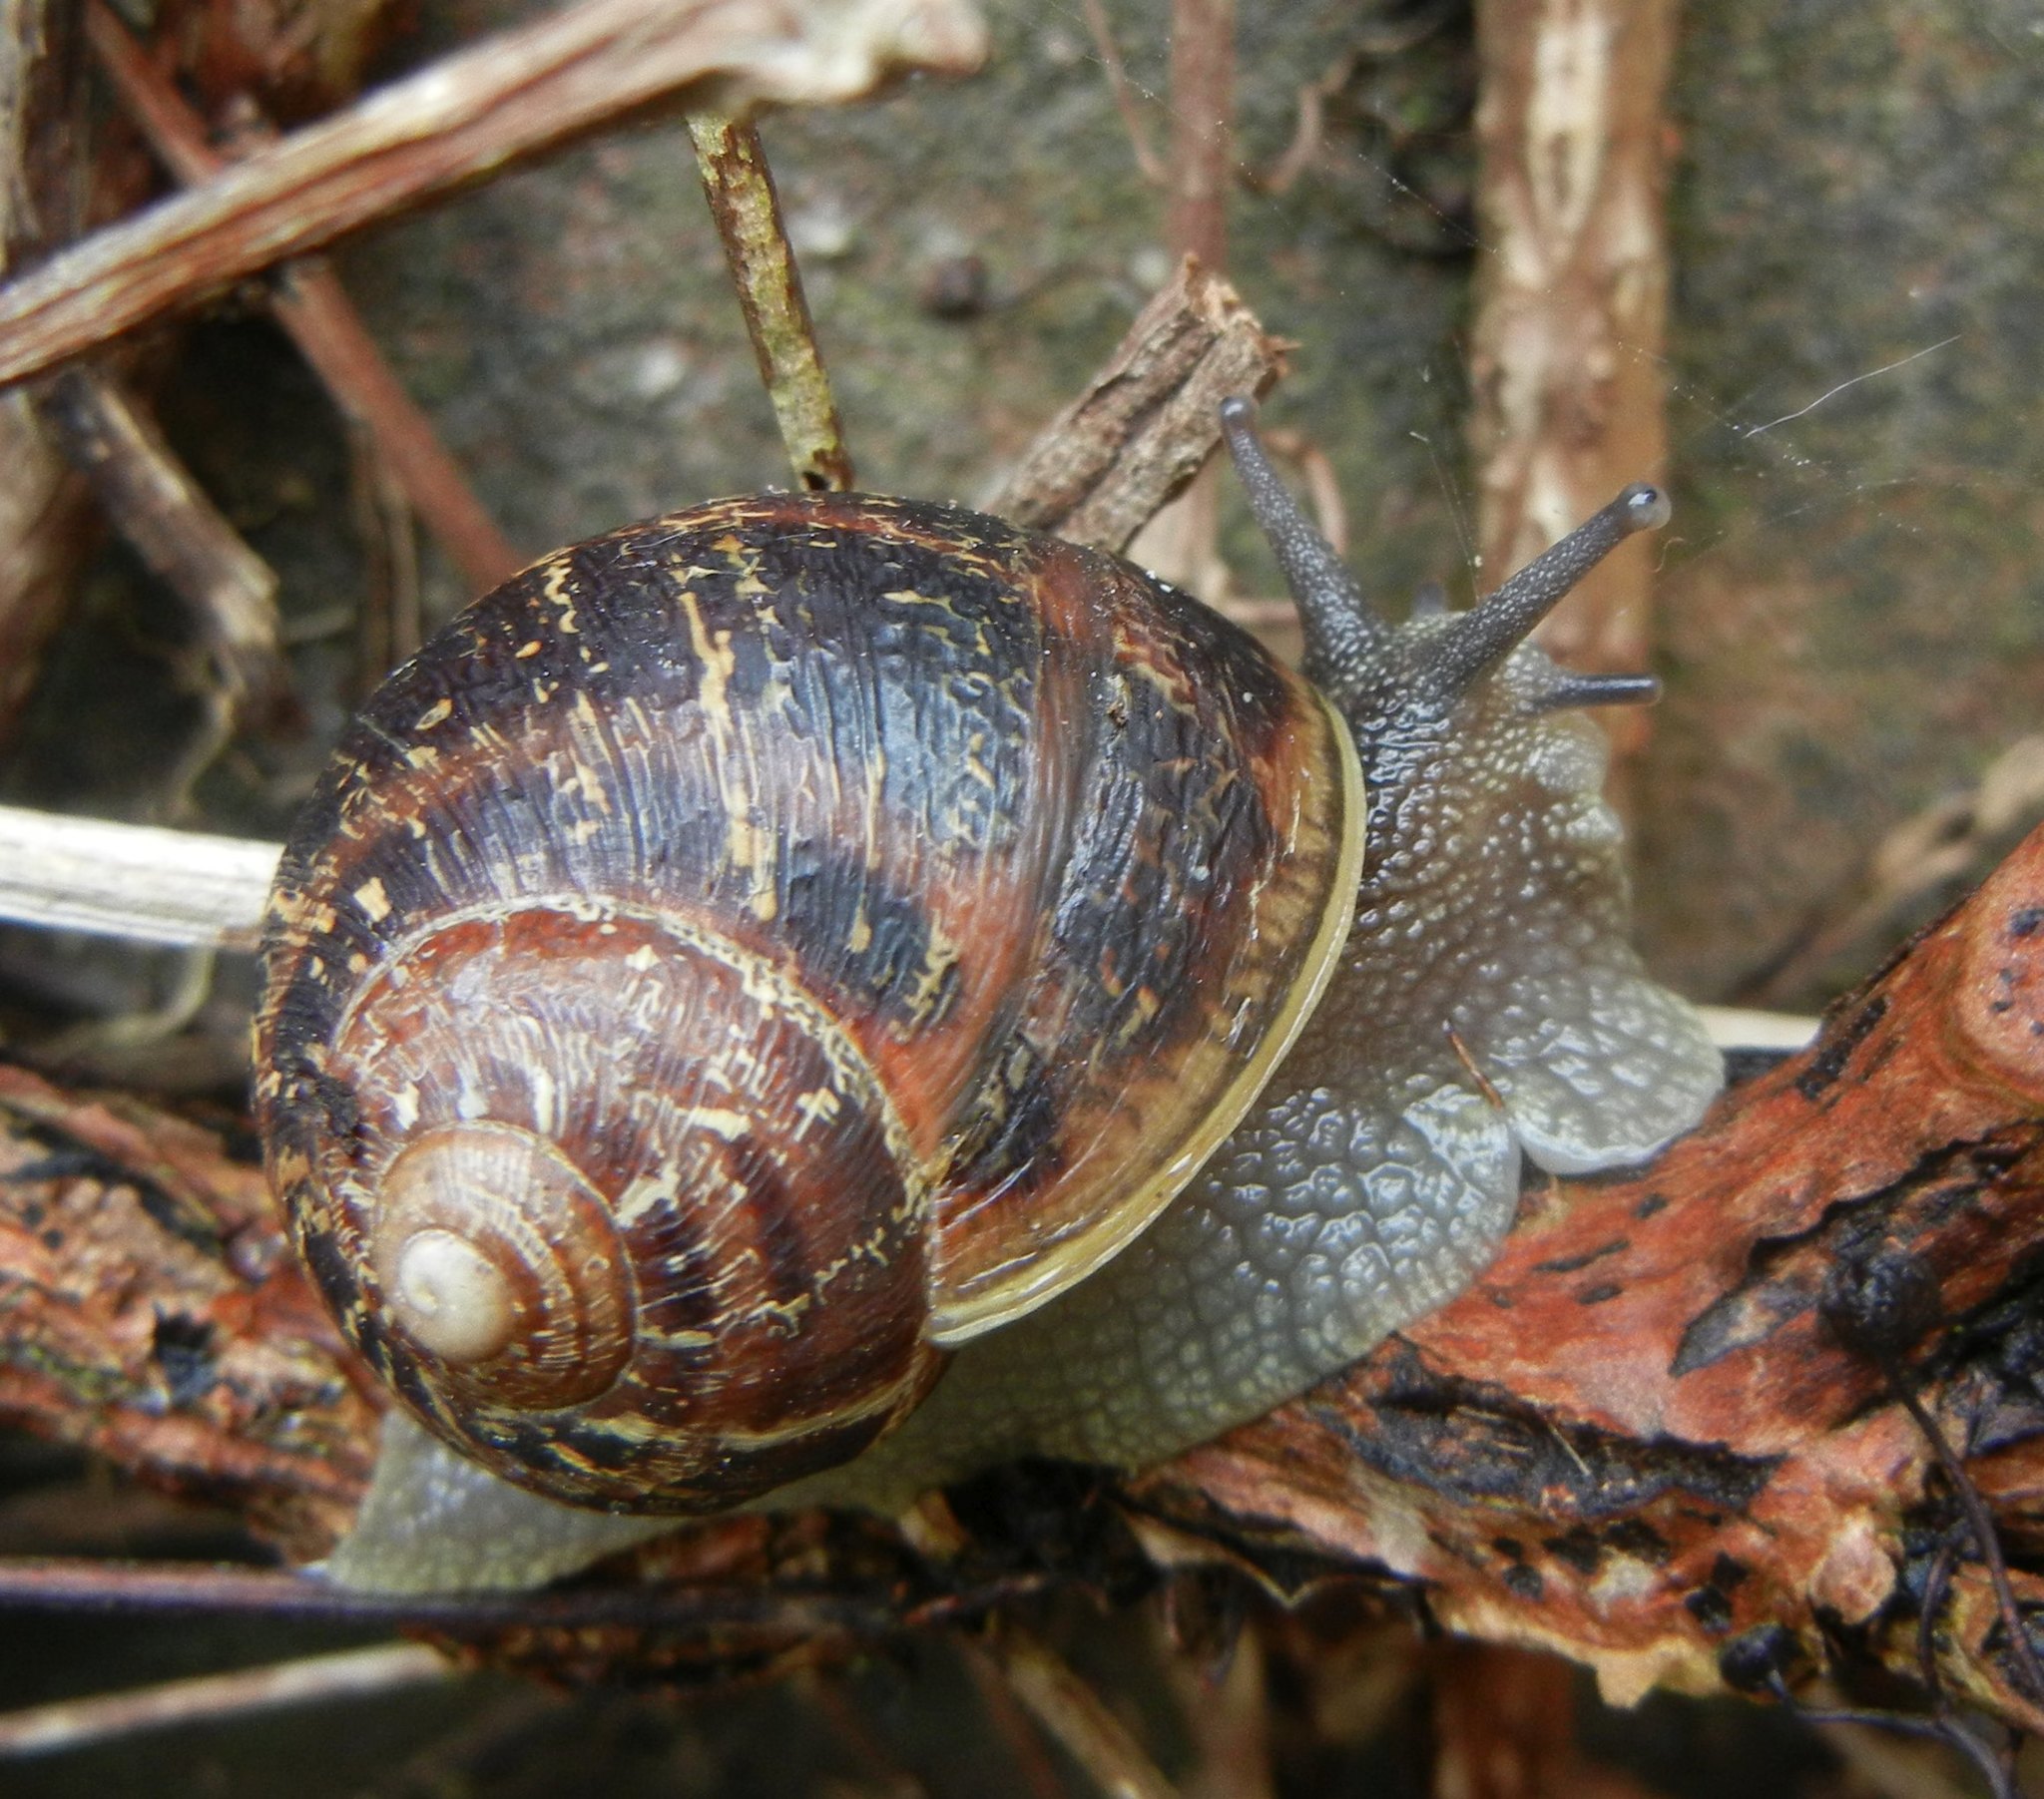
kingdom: Animalia
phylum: Mollusca
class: Gastropoda
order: Stylommatophora
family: Helicidae
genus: Cornu
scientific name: Cornu aspersum
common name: Brown garden snail
